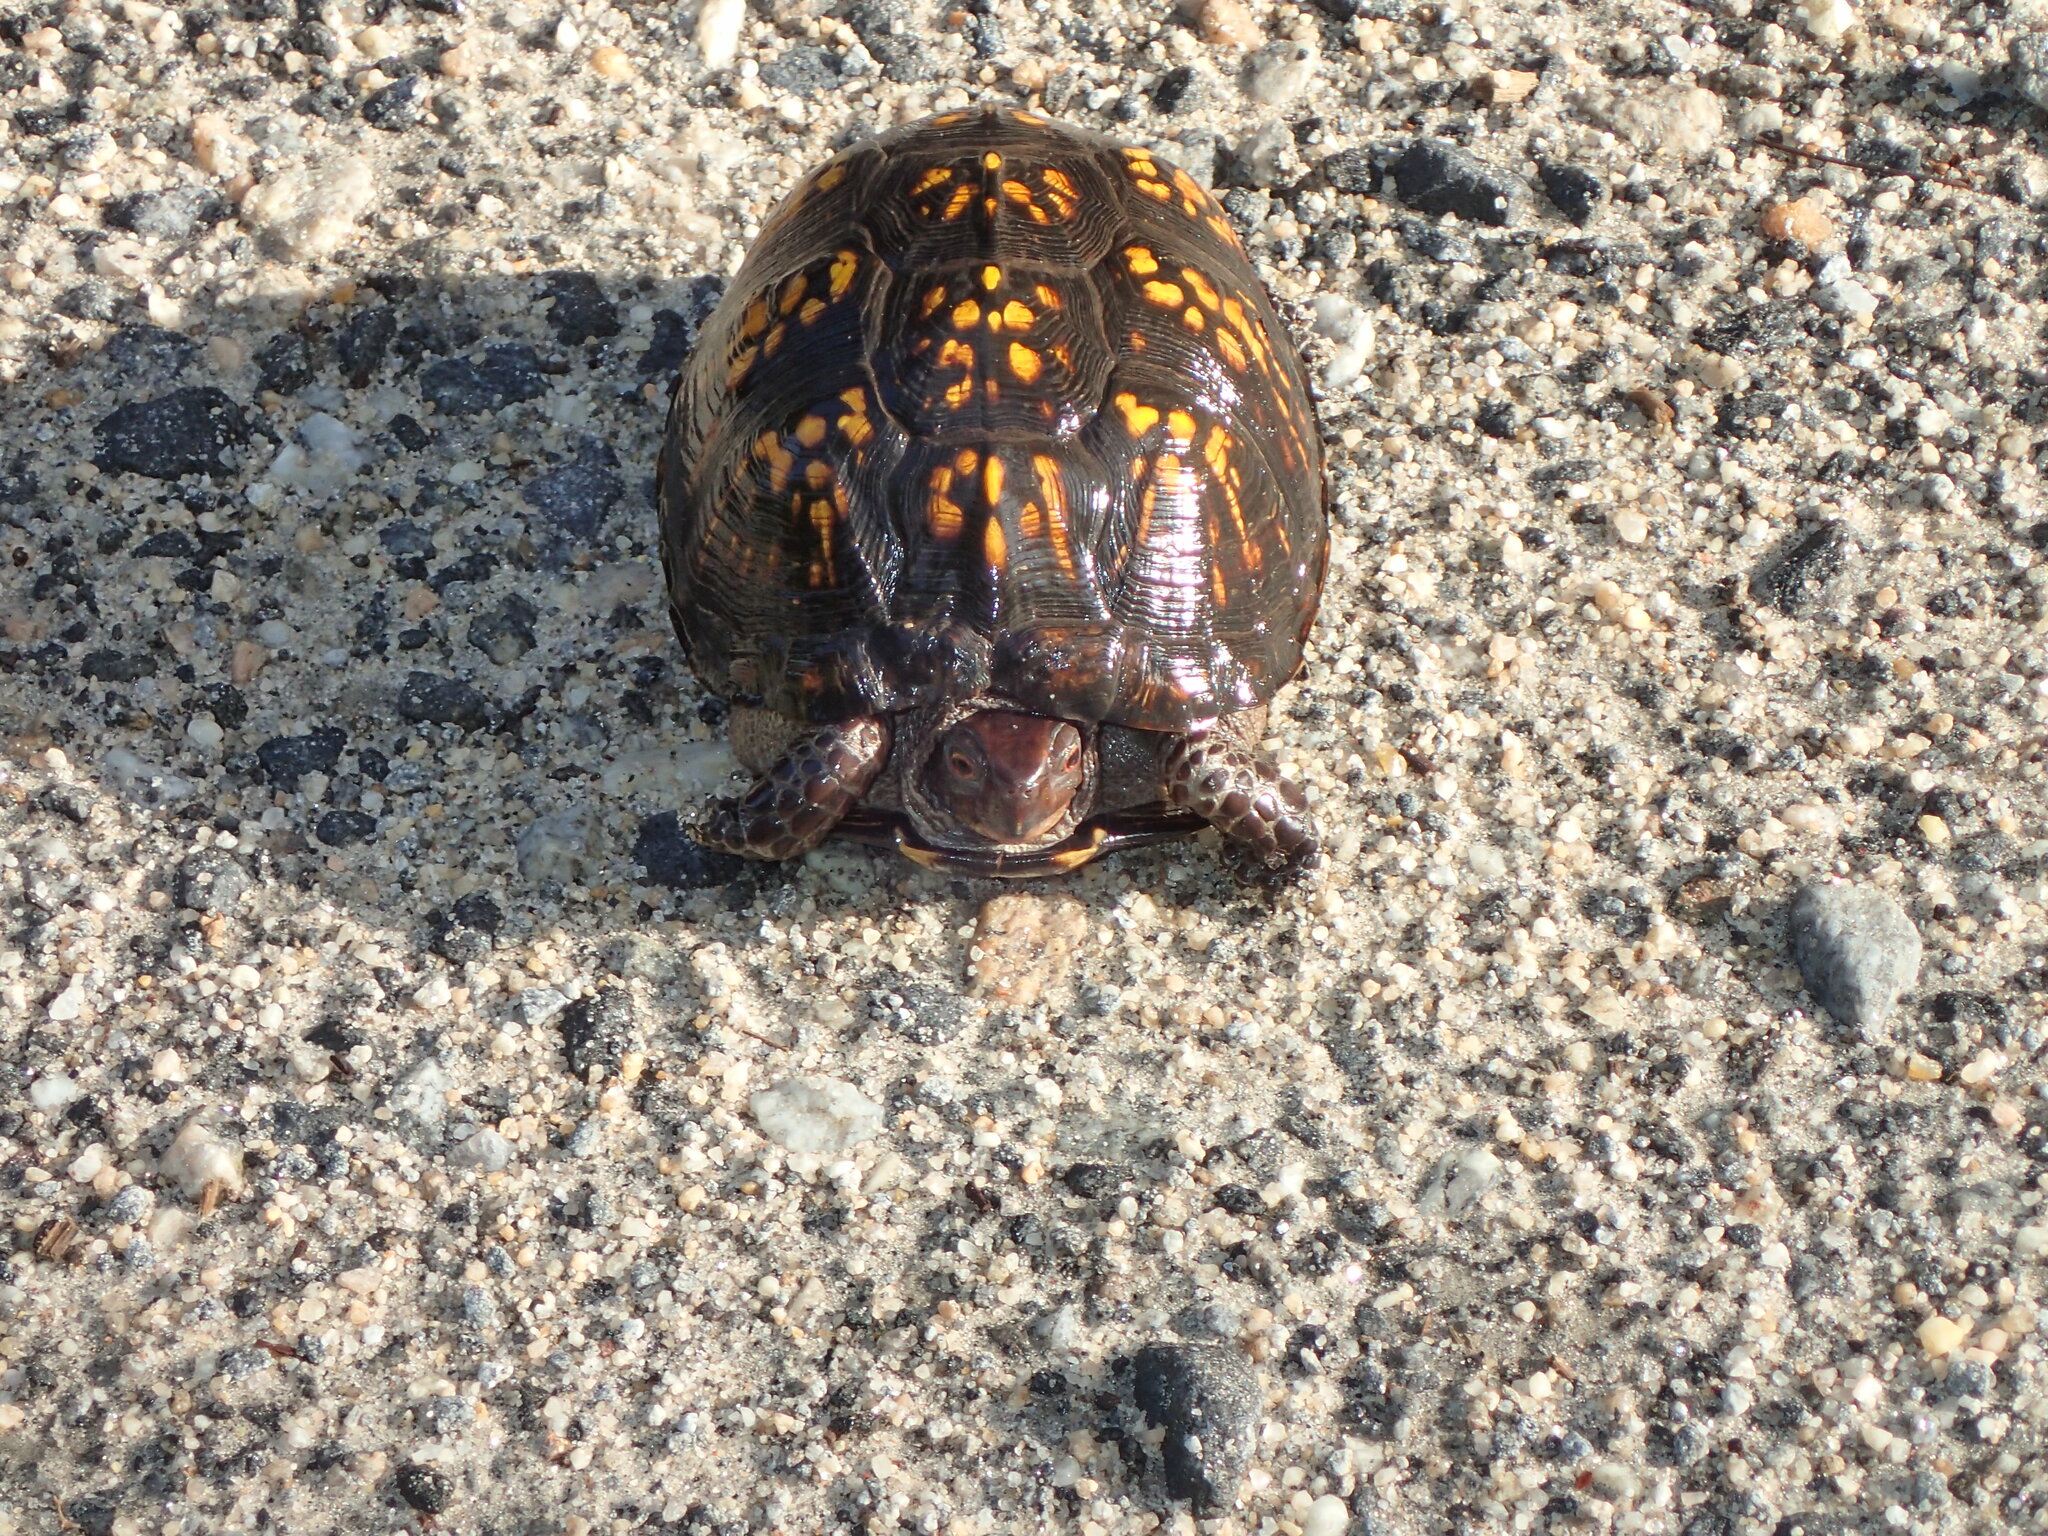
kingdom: Animalia
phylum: Chordata
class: Testudines
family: Emydidae
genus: Terrapene
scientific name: Terrapene carolina
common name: Common box turtle
